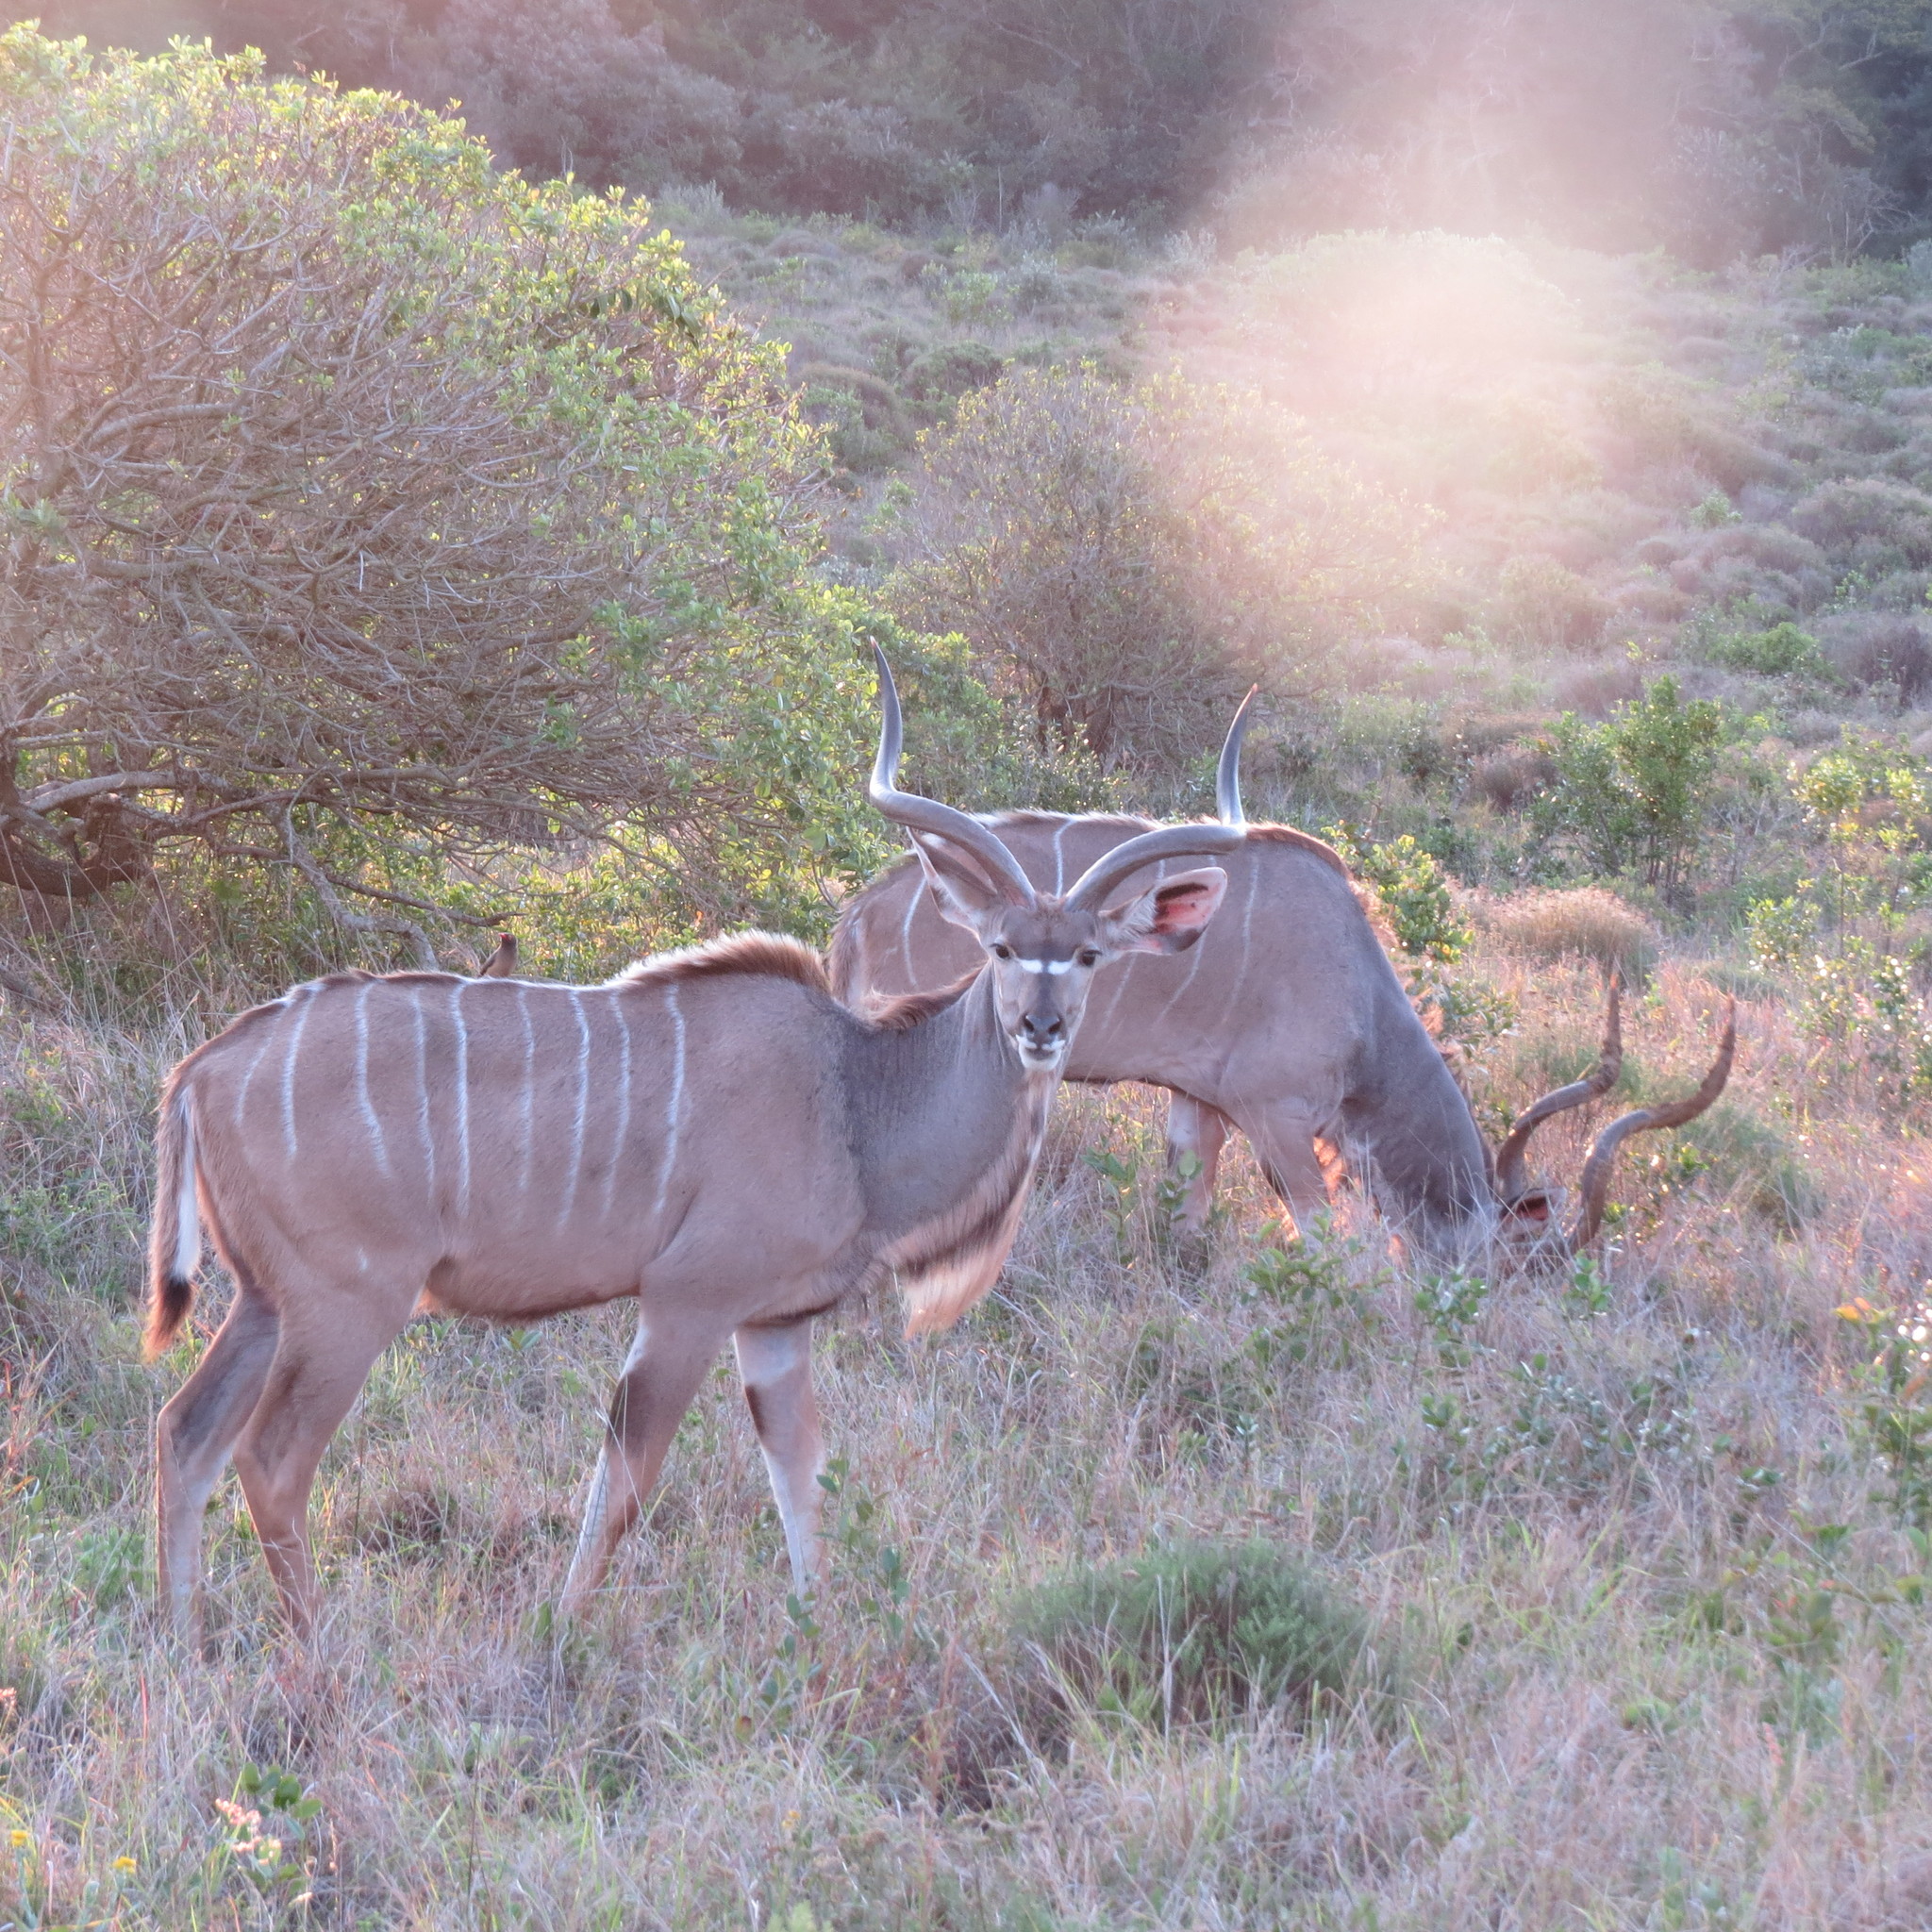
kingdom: Animalia
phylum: Chordata
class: Mammalia
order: Artiodactyla
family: Bovidae
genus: Tragelaphus
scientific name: Tragelaphus strepsiceros
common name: Greater kudu
